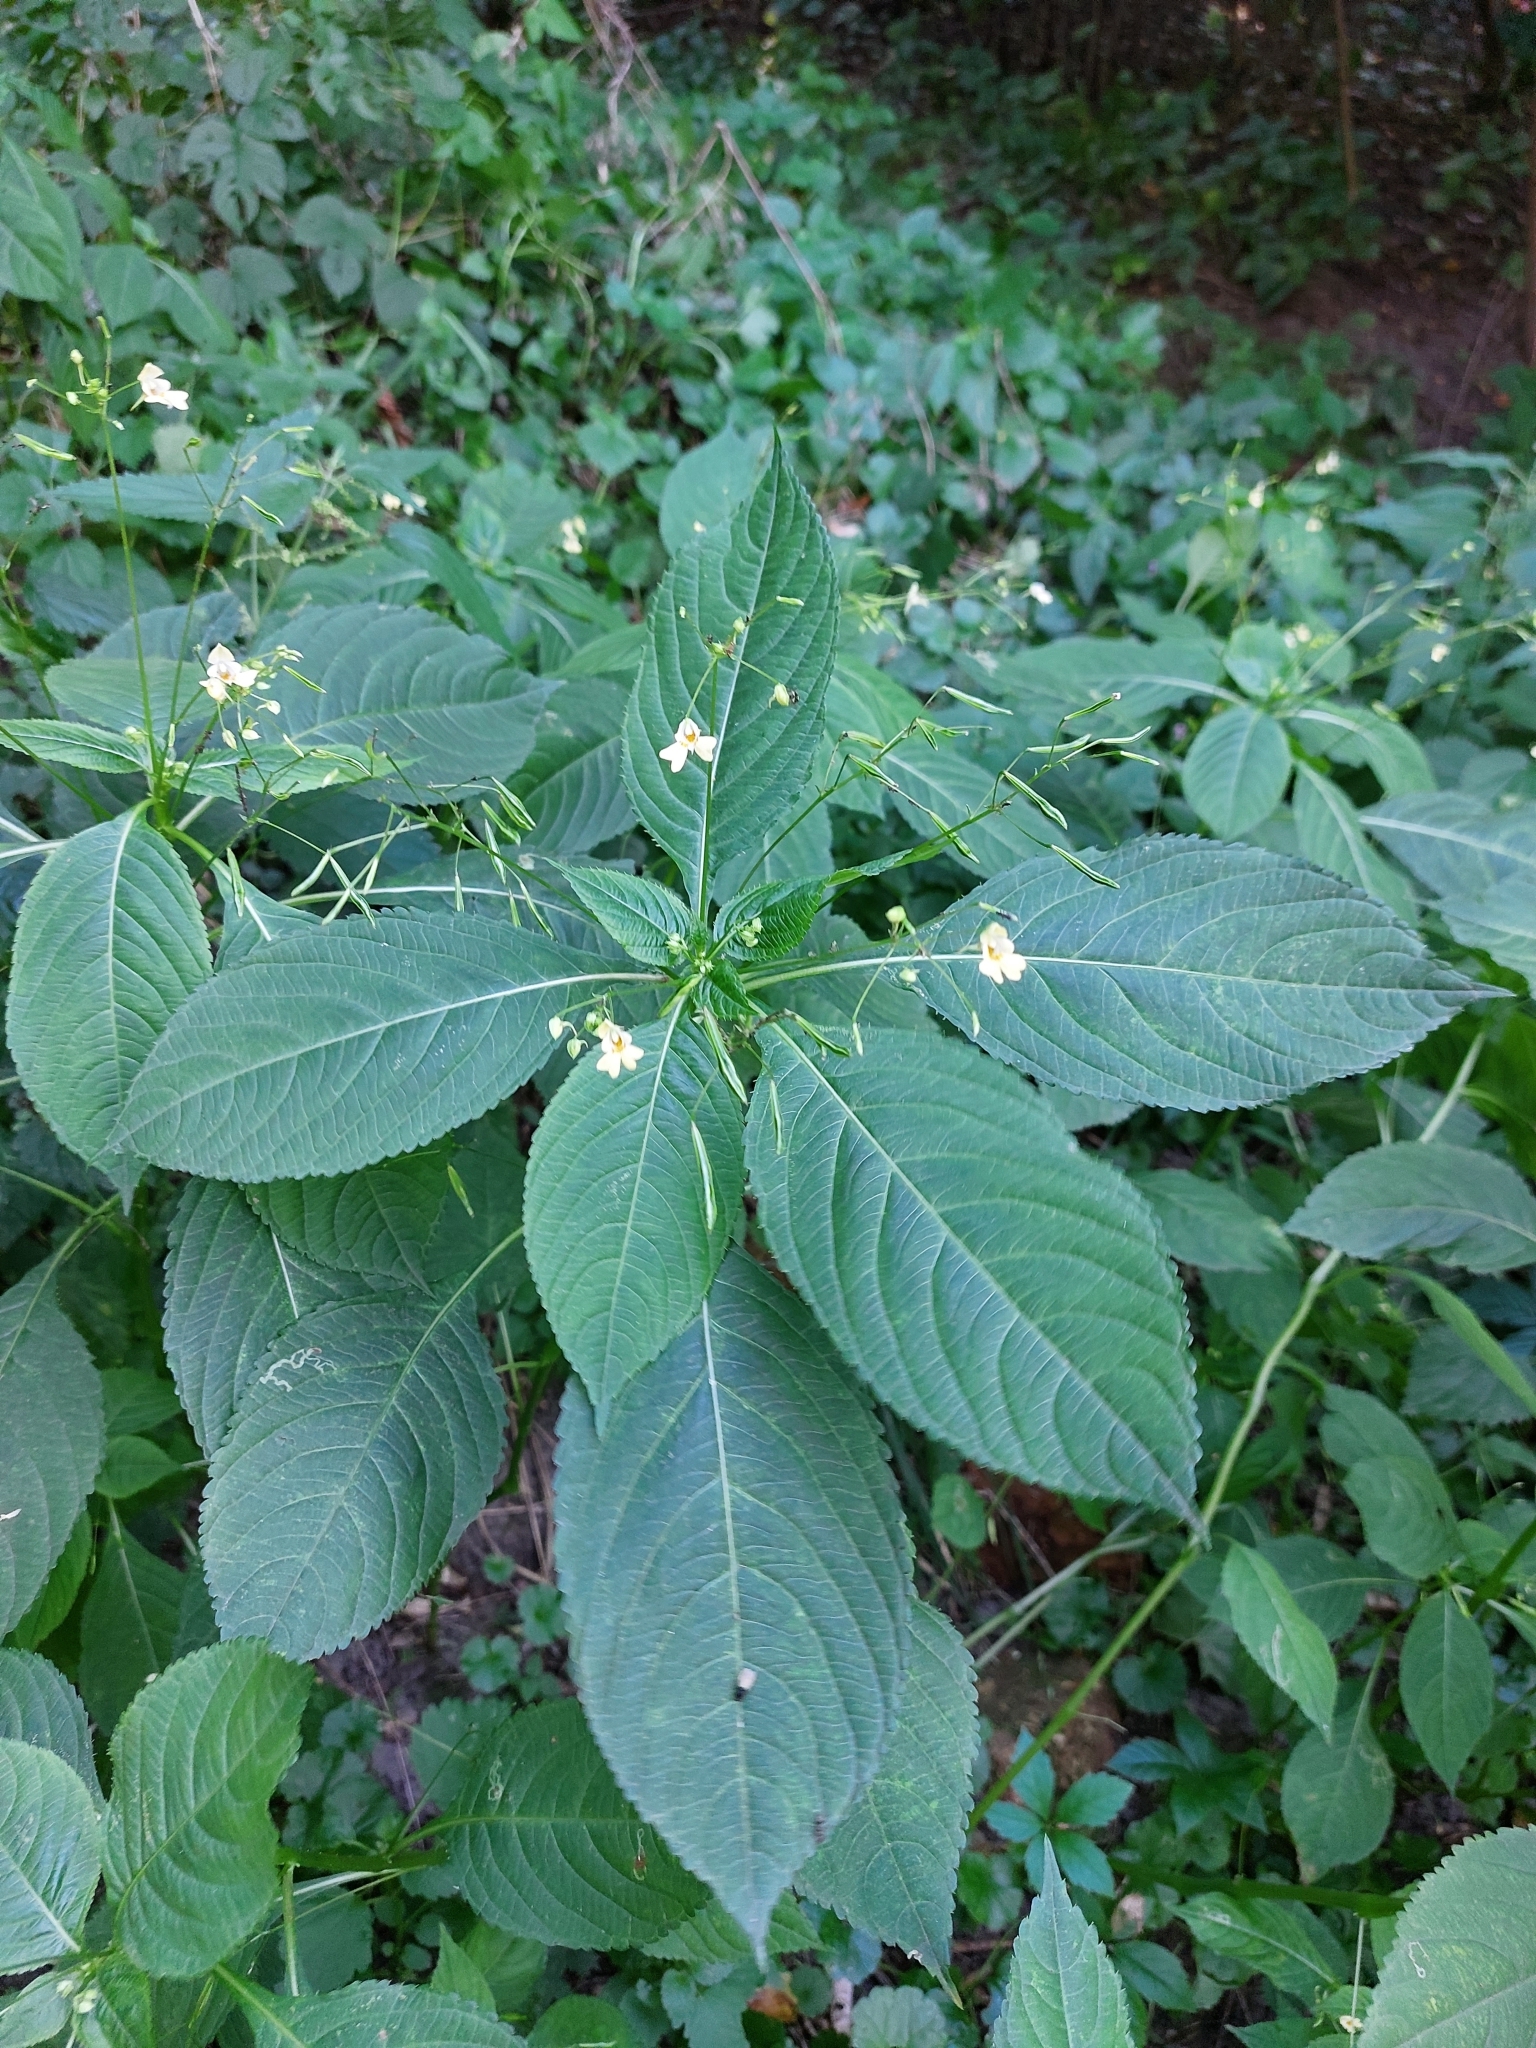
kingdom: Plantae
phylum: Tracheophyta
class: Magnoliopsida
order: Ericales
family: Balsaminaceae
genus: Impatiens
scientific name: Impatiens parviflora
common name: Small balsam
